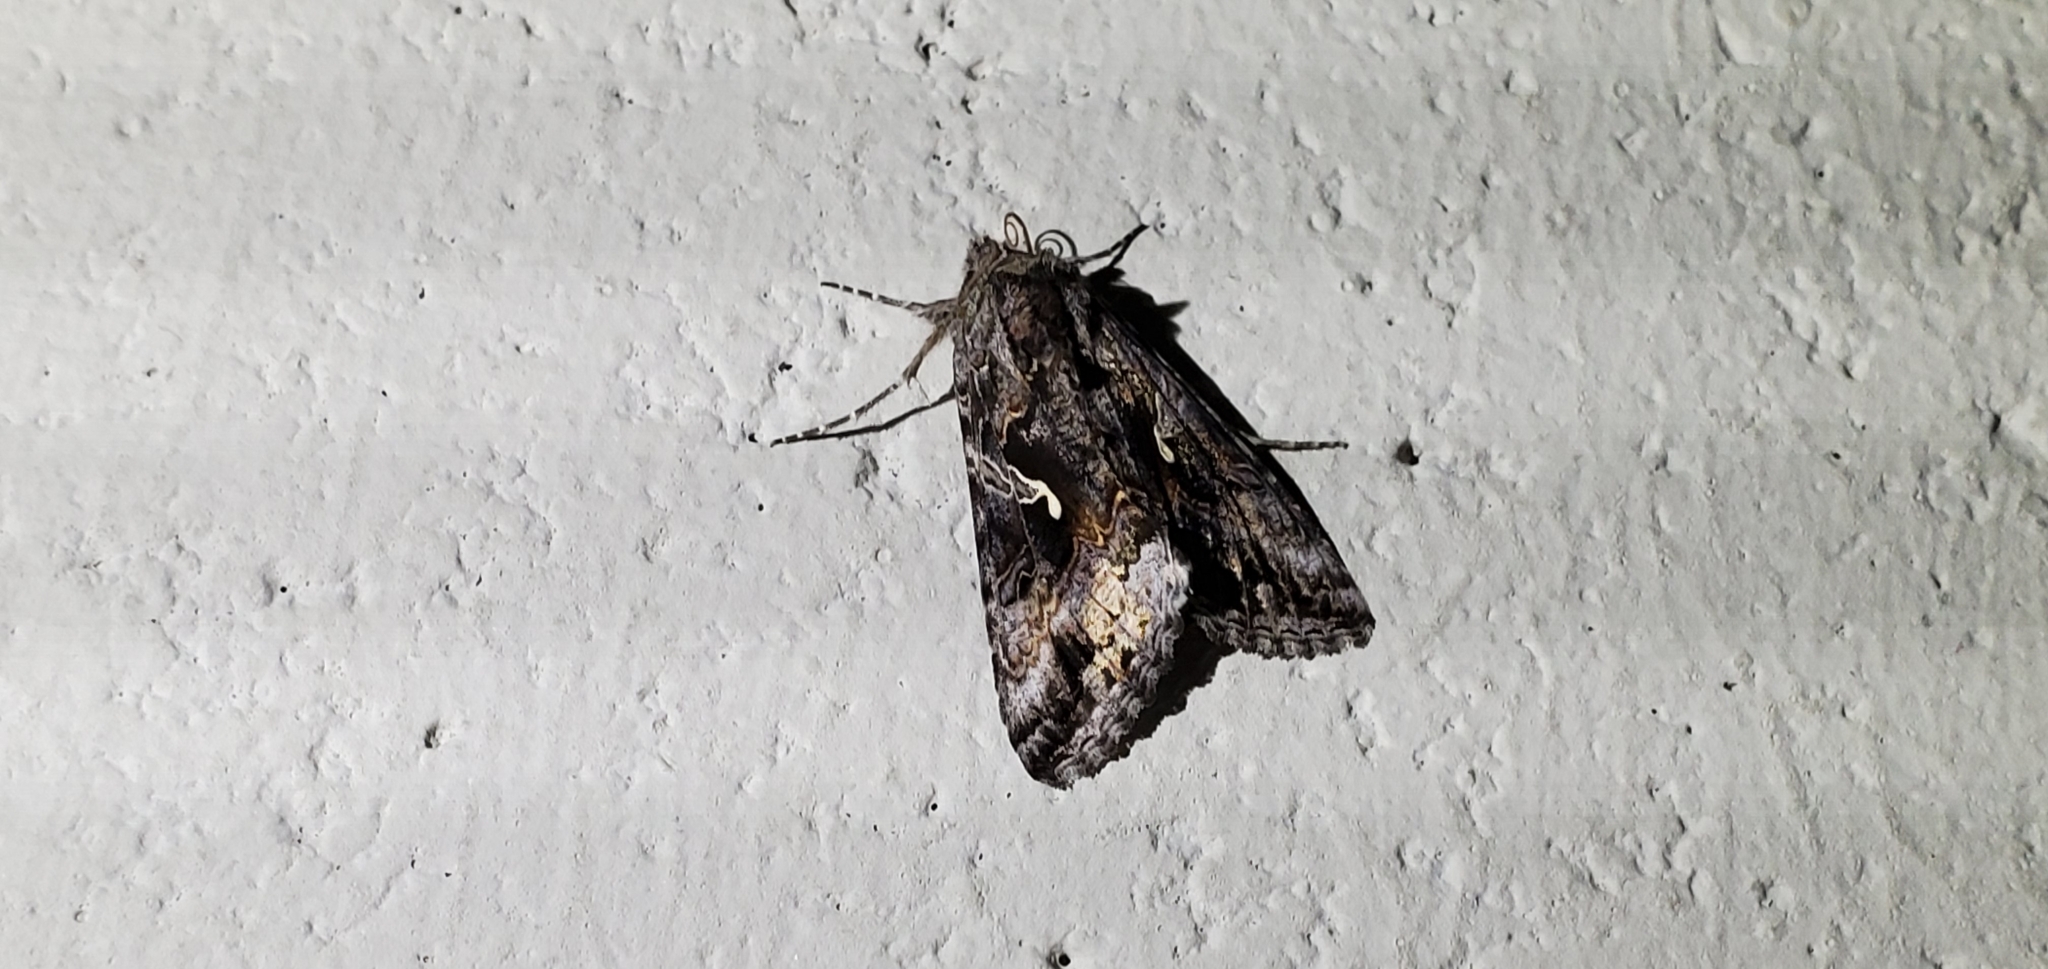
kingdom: Animalia
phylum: Arthropoda
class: Insecta
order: Lepidoptera
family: Noctuidae
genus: Autographa
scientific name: Autographa californica
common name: Alfalfa looper
